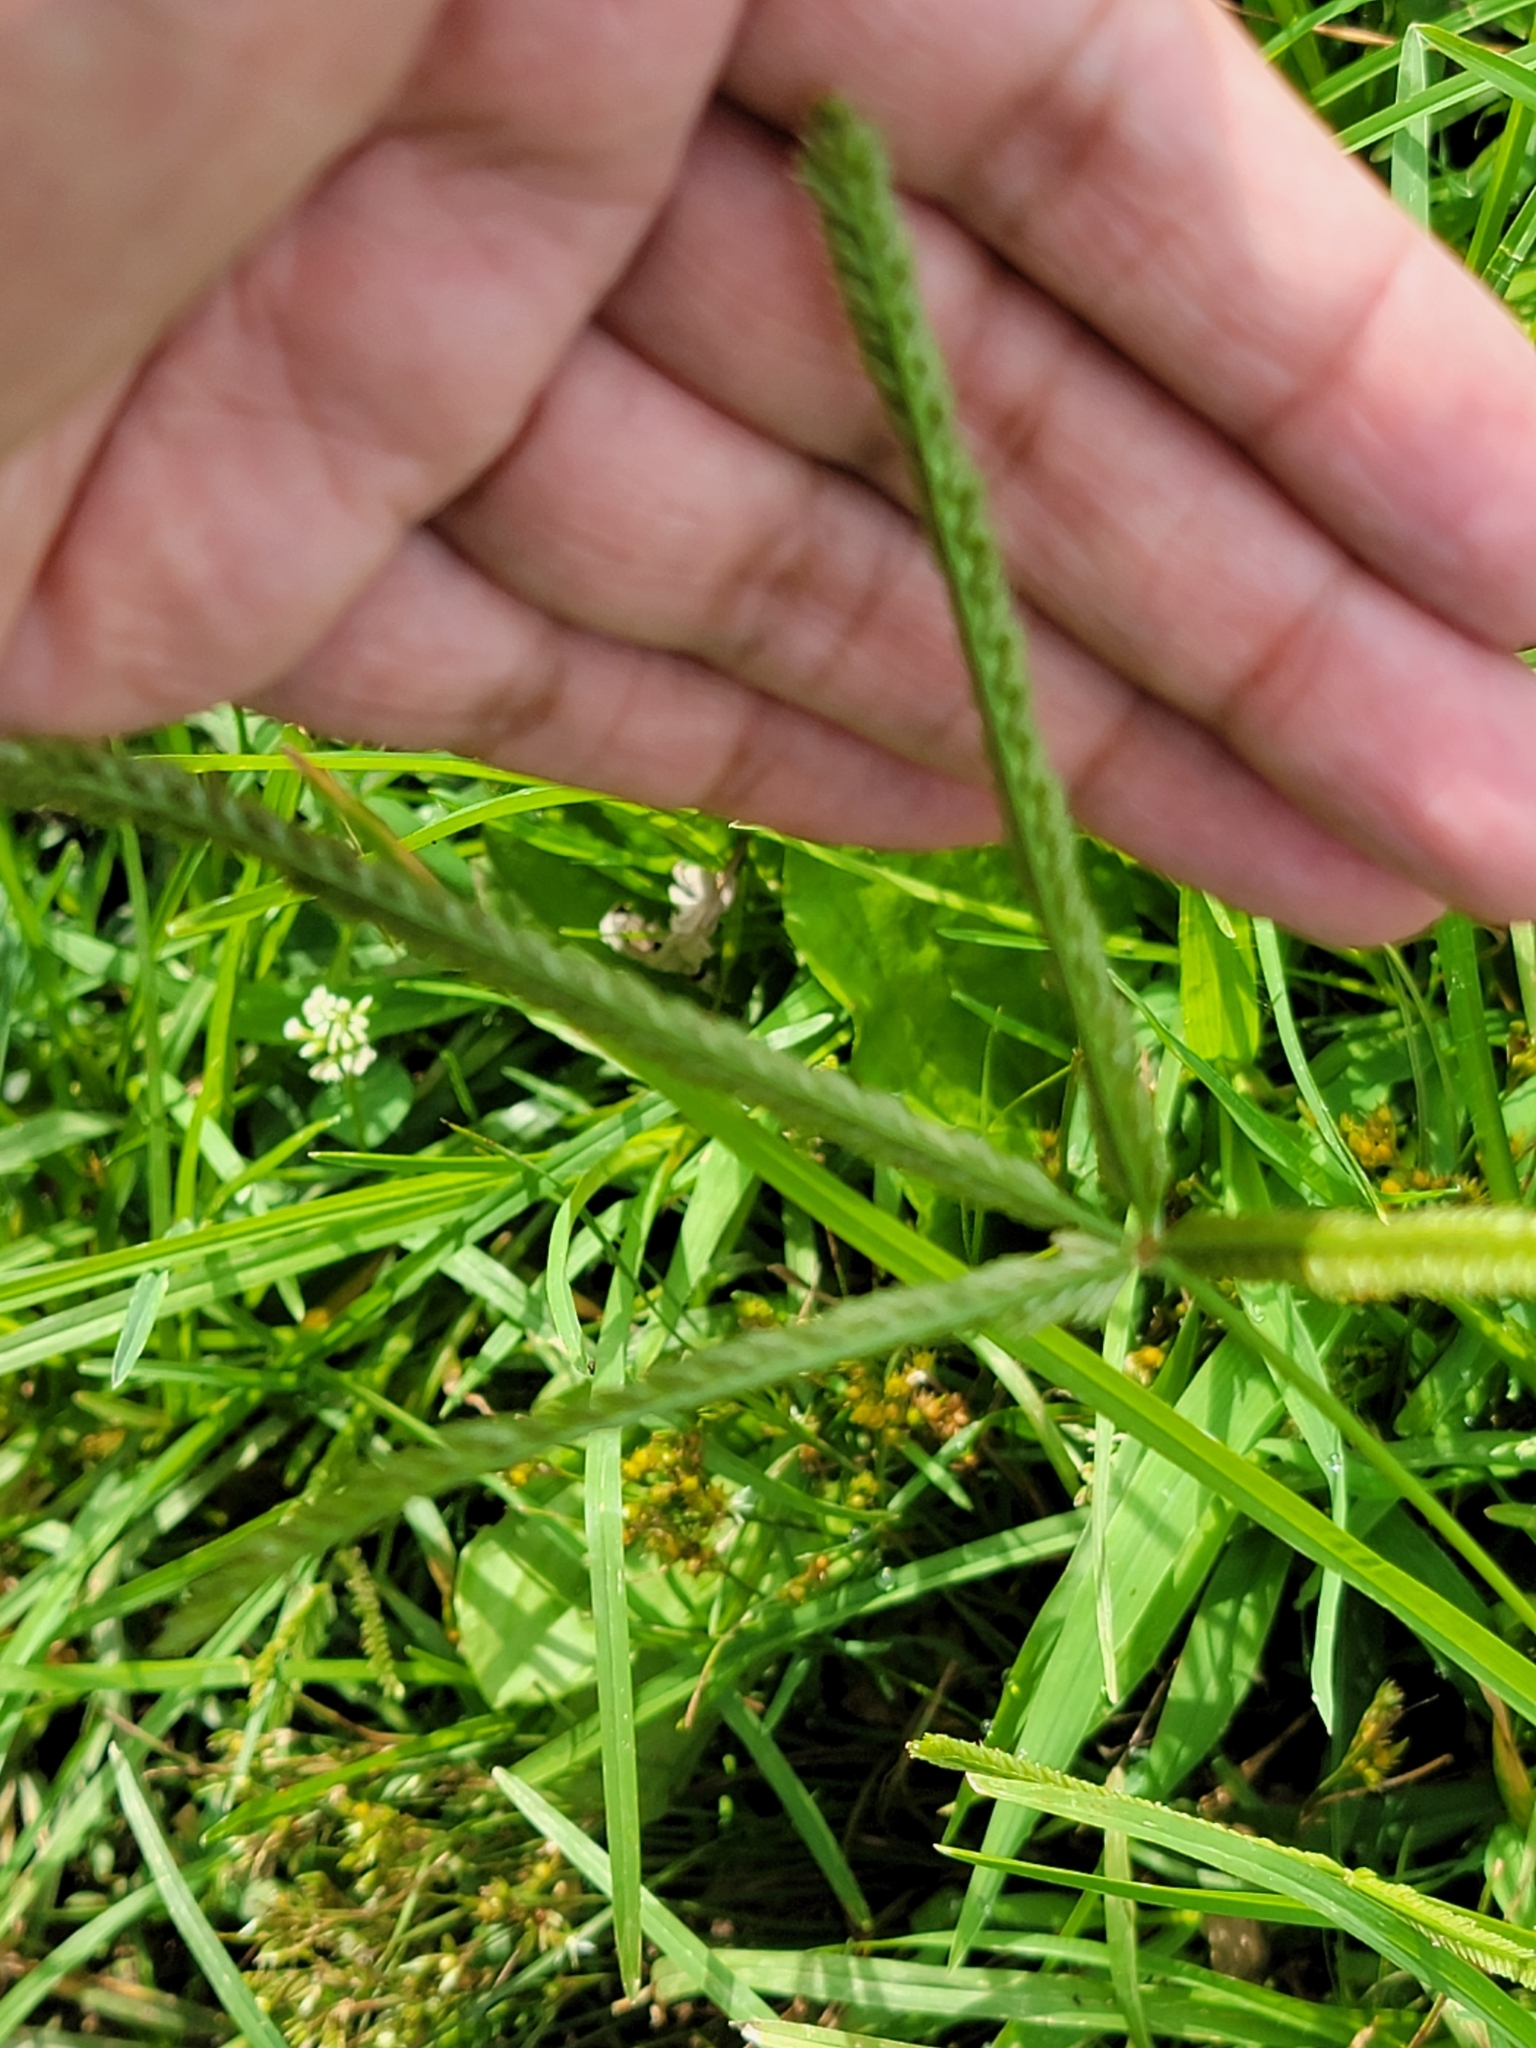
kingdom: Plantae
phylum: Tracheophyta
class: Liliopsida
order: Poales
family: Poaceae
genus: Eleusine
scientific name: Eleusine indica
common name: Yard-grass
